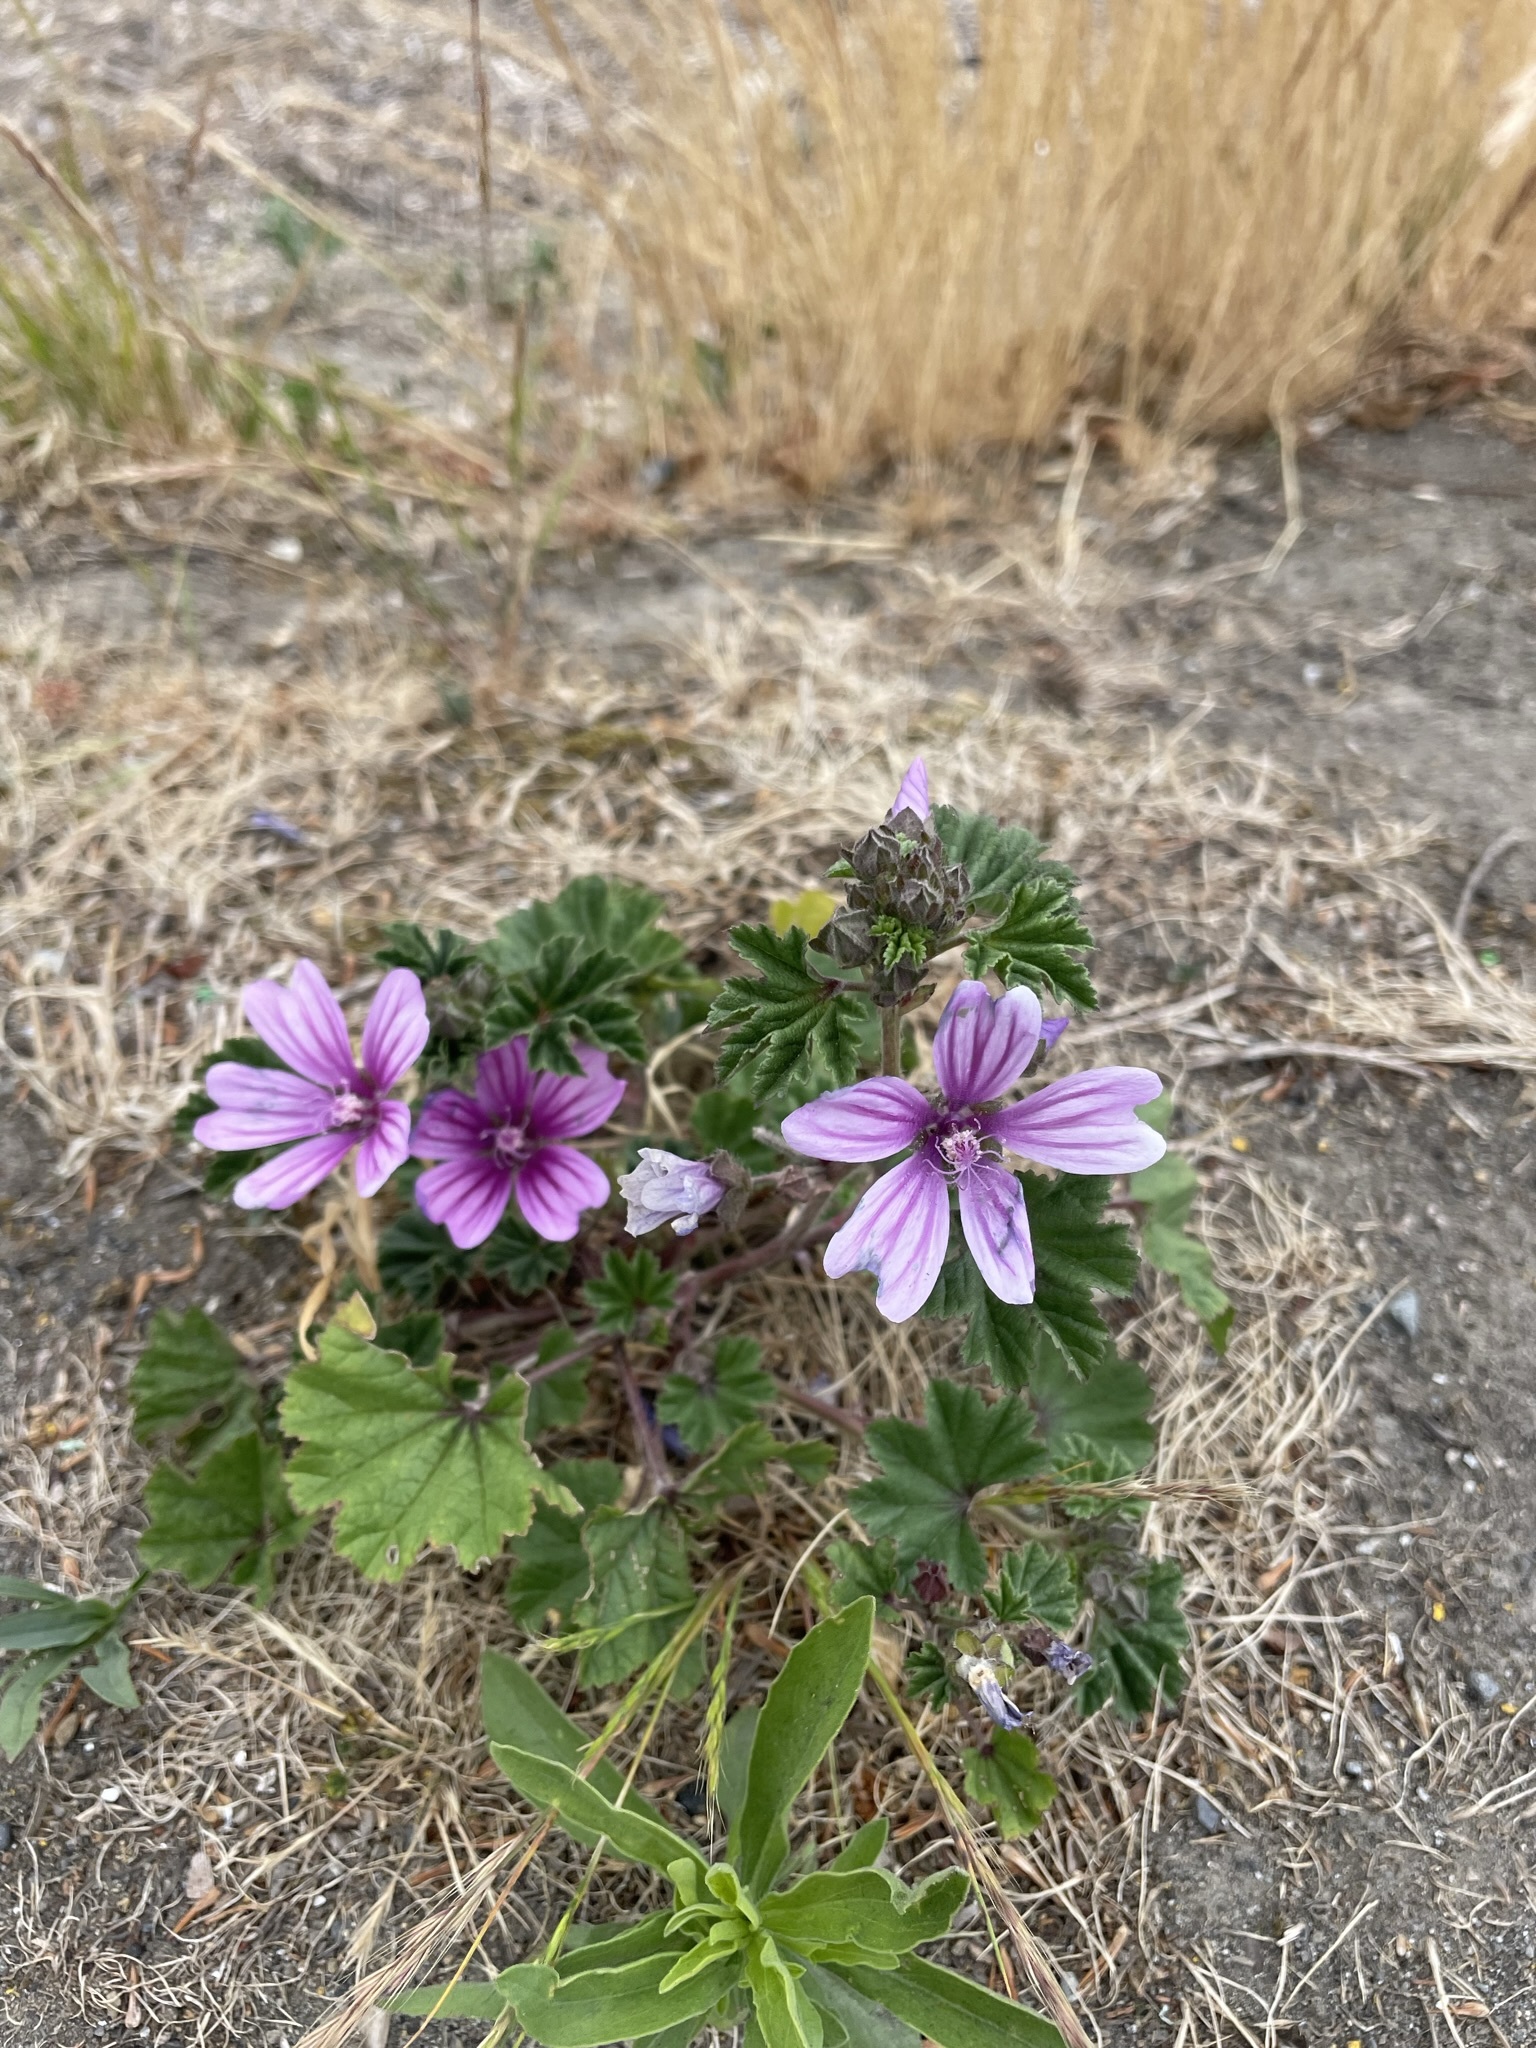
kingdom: Plantae
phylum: Tracheophyta
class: Magnoliopsida
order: Malvales
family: Malvaceae
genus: Malva
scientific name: Malva sylvestris
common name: Common mallow
